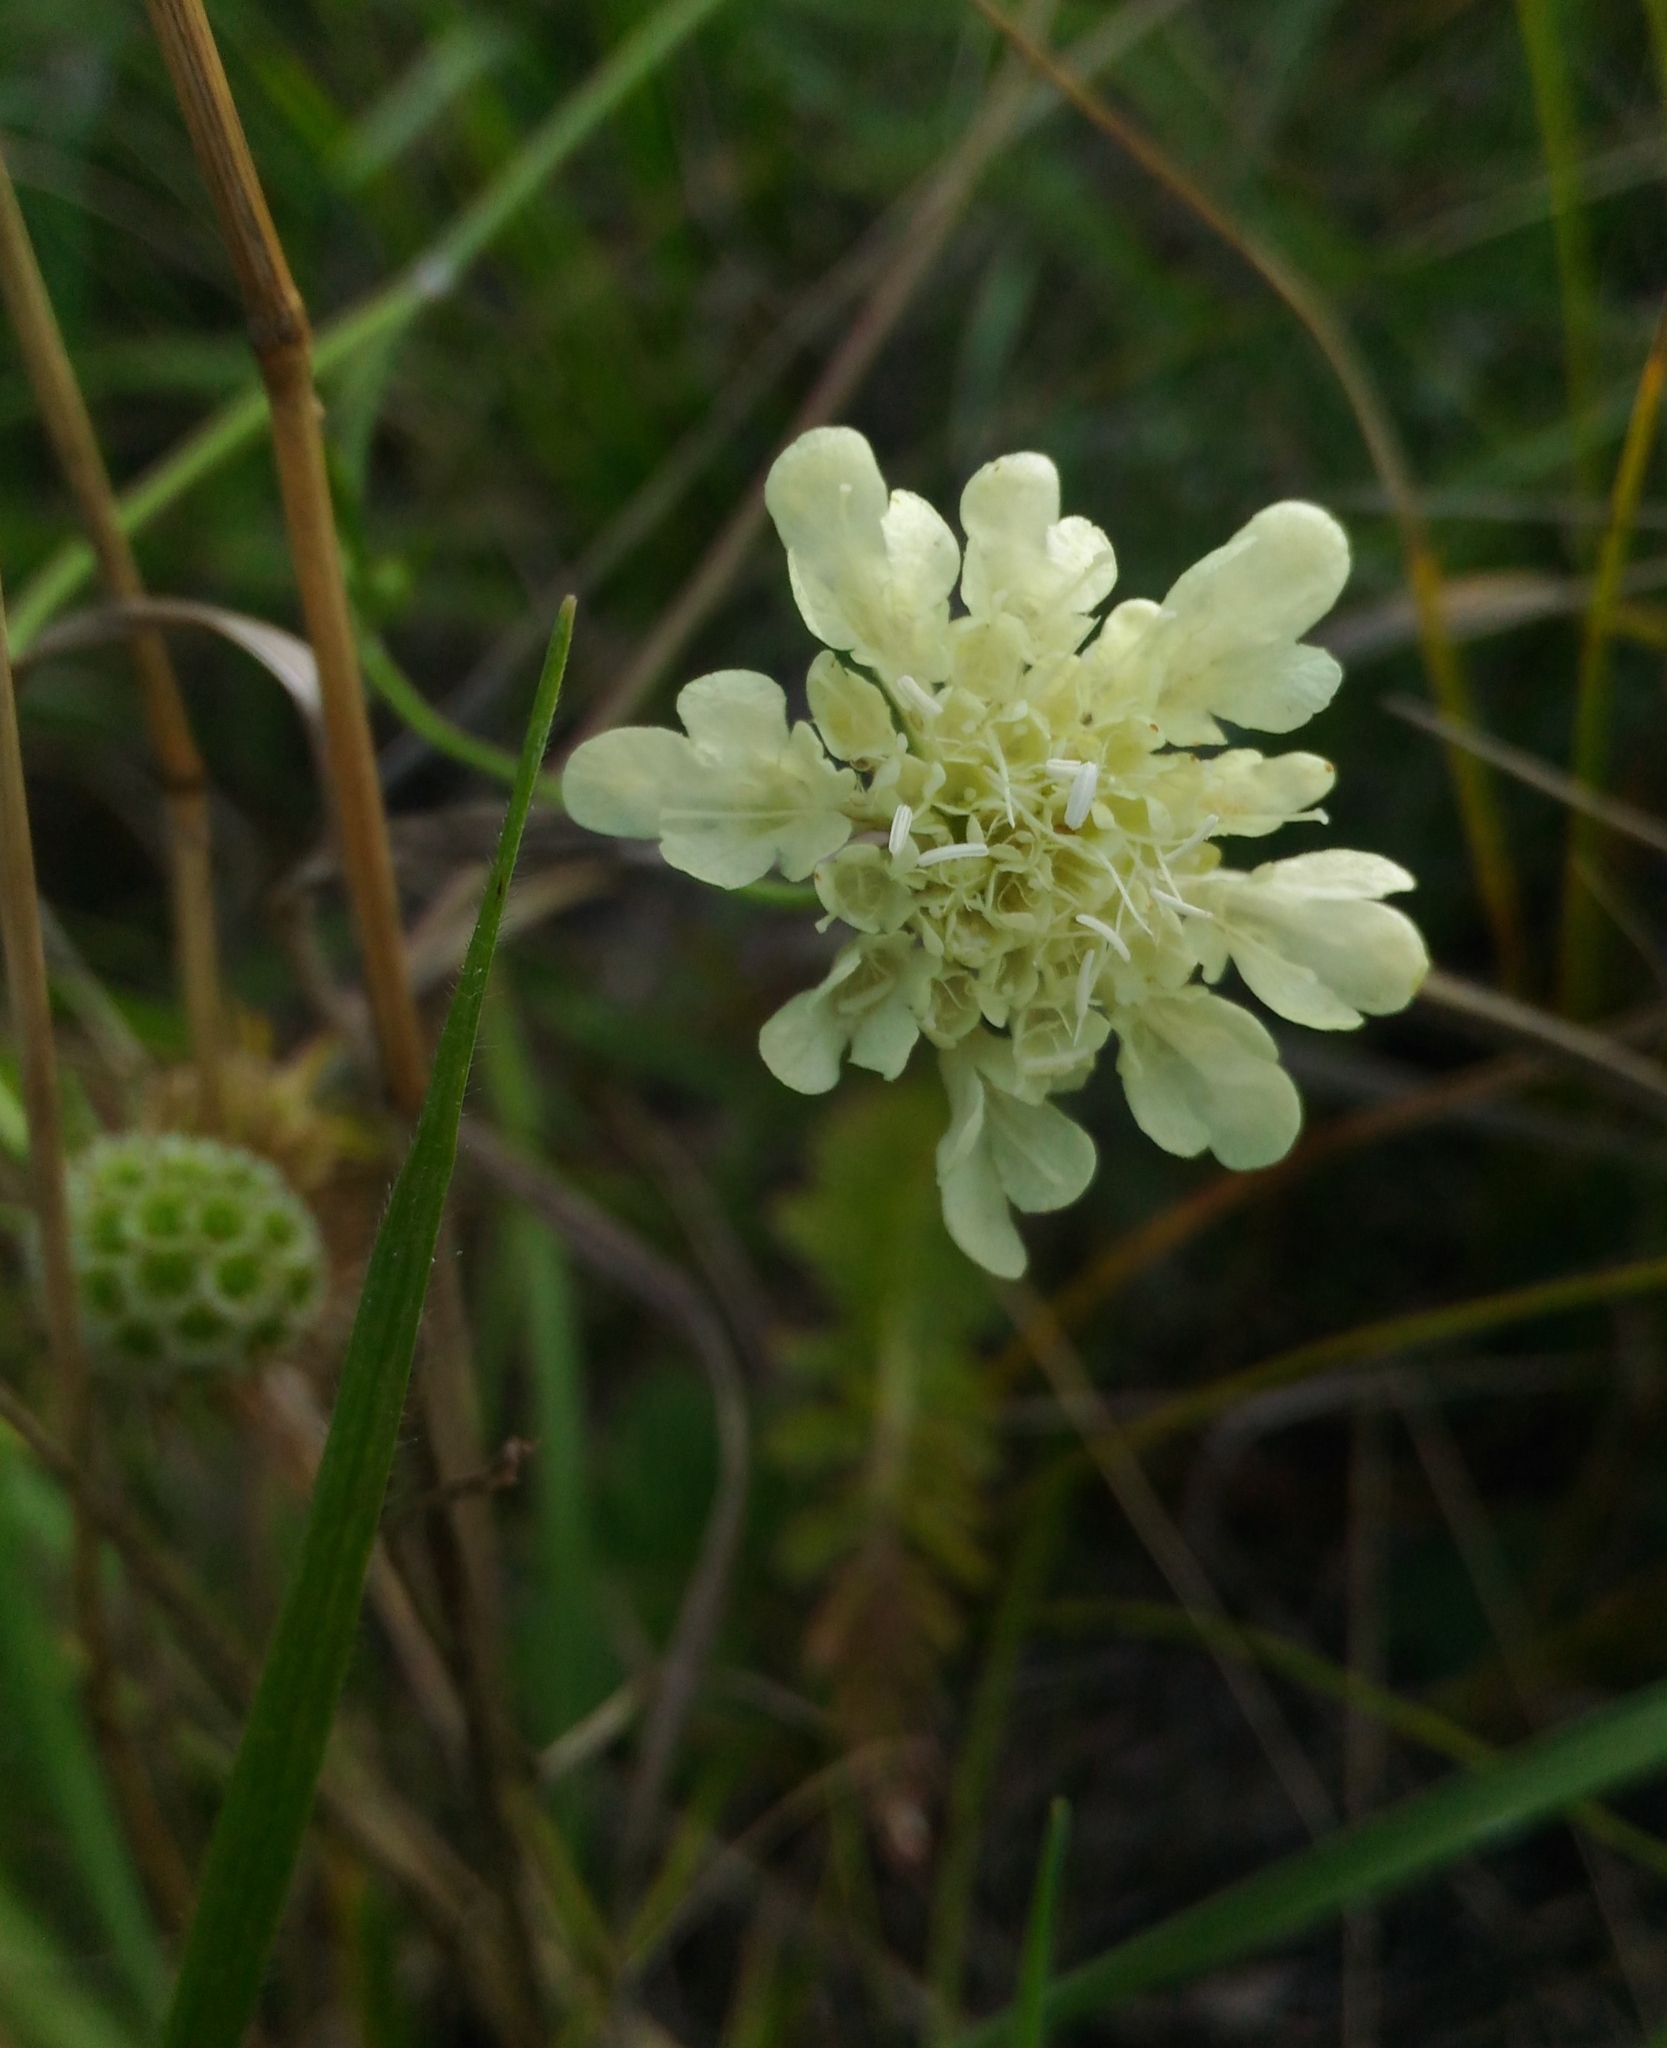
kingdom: Plantae
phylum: Tracheophyta
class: Magnoliopsida
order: Dipsacales
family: Caprifoliaceae
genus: Scabiosa
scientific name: Scabiosa ochroleuca
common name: Cream pincushions
